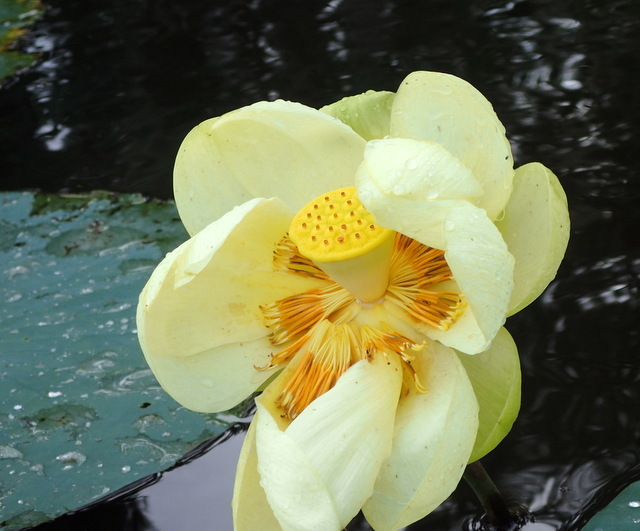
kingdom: Plantae
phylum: Tracheophyta
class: Magnoliopsida
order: Proteales
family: Nelumbonaceae
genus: Nelumbo
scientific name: Nelumbo lutea
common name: American lotus
